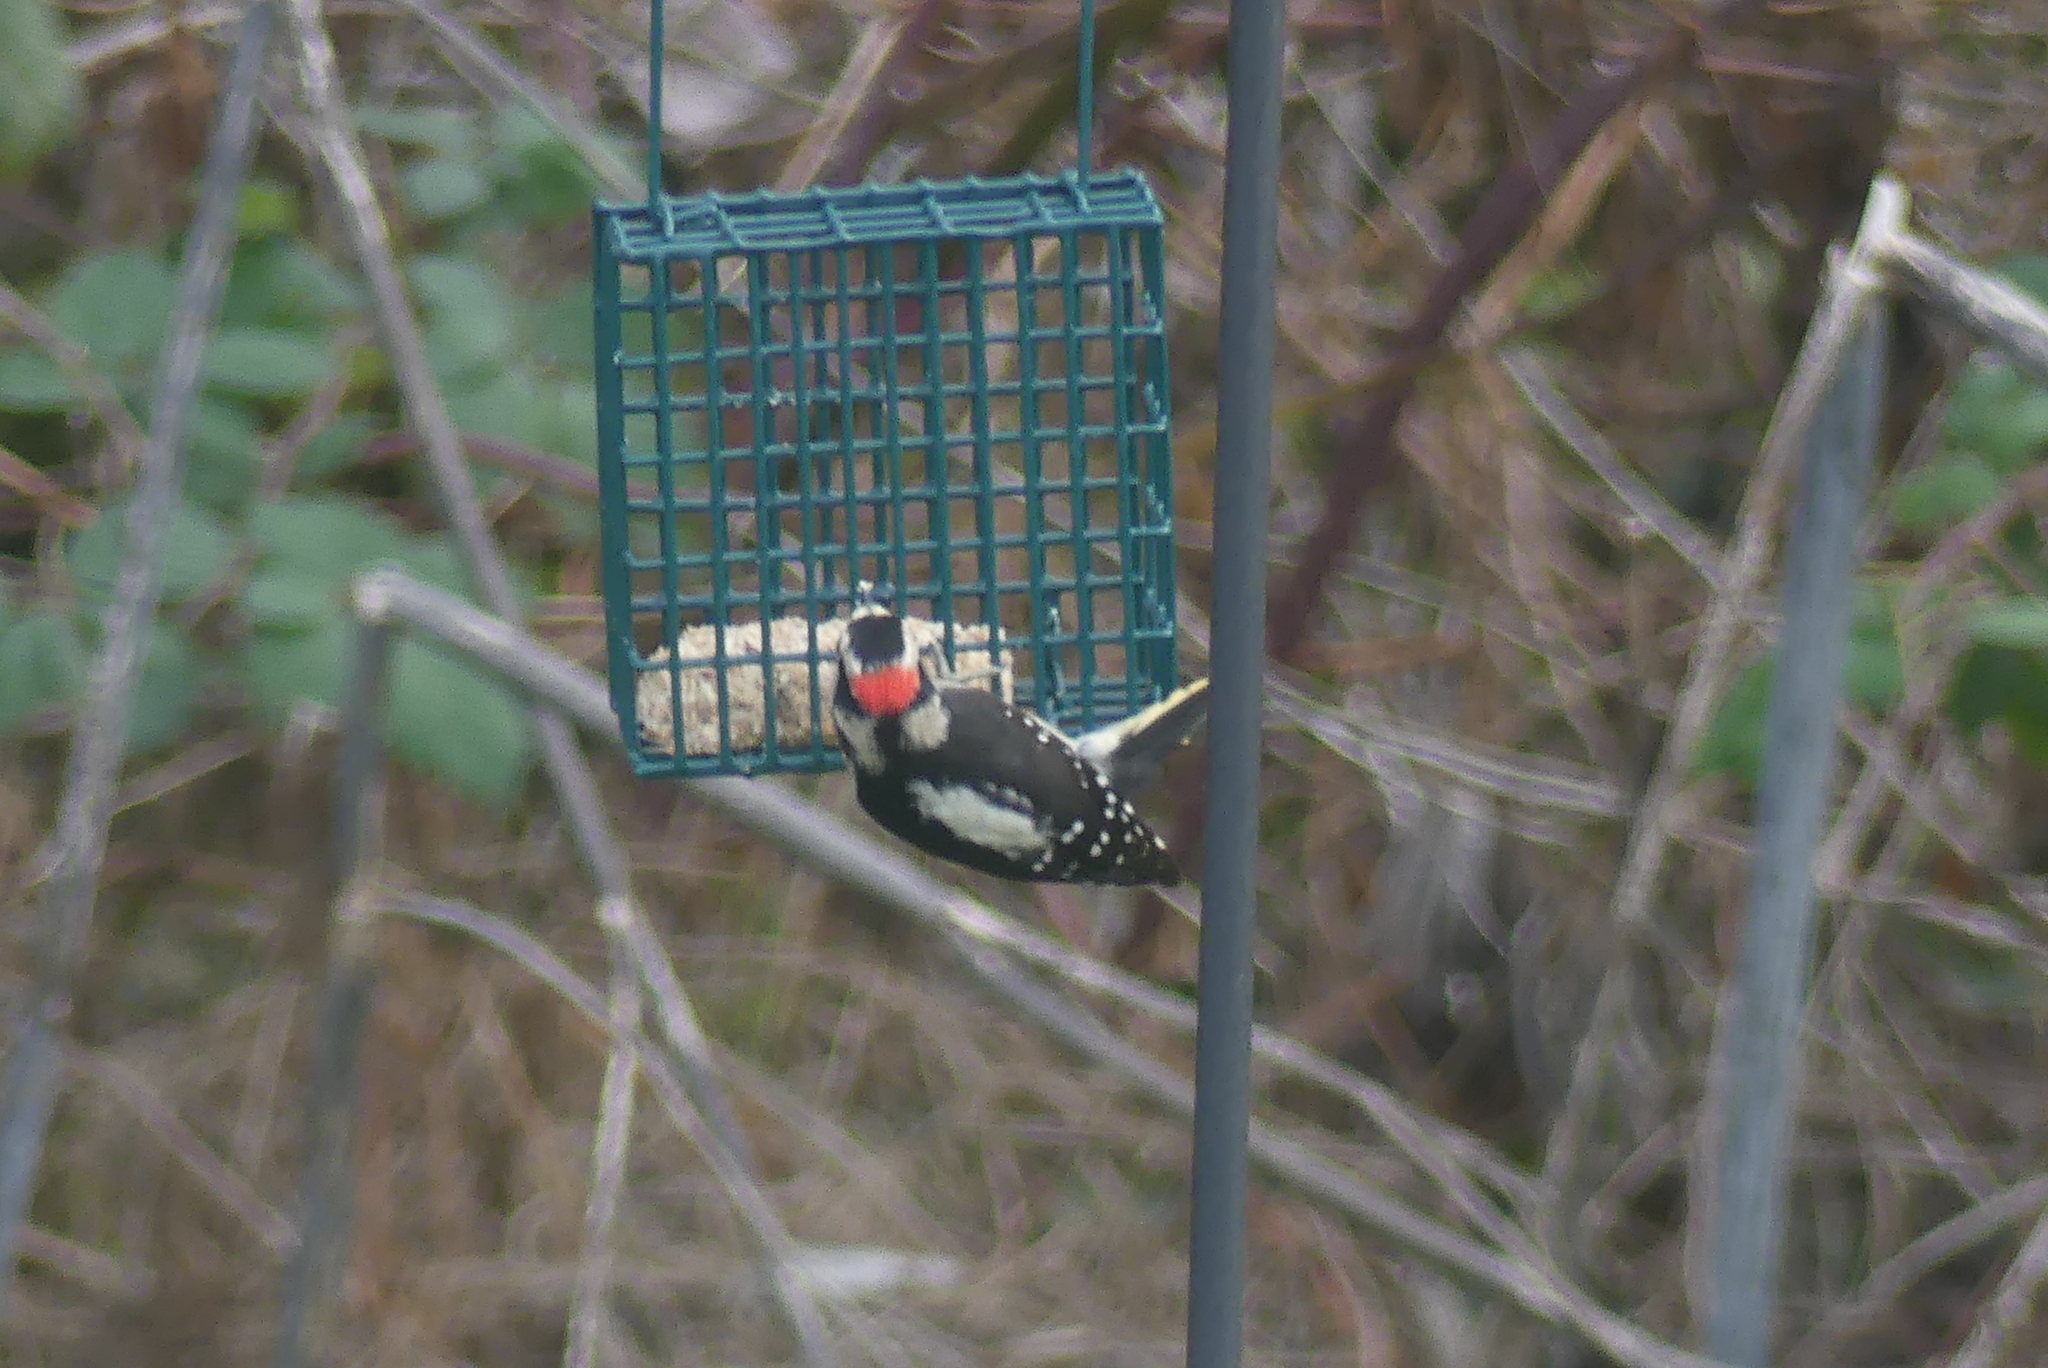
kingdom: Animalia
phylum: Chordata
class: Aves
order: Piciformes
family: Picidae
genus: Dryobates
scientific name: Dryobates pubescens
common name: Downy woodpecker
